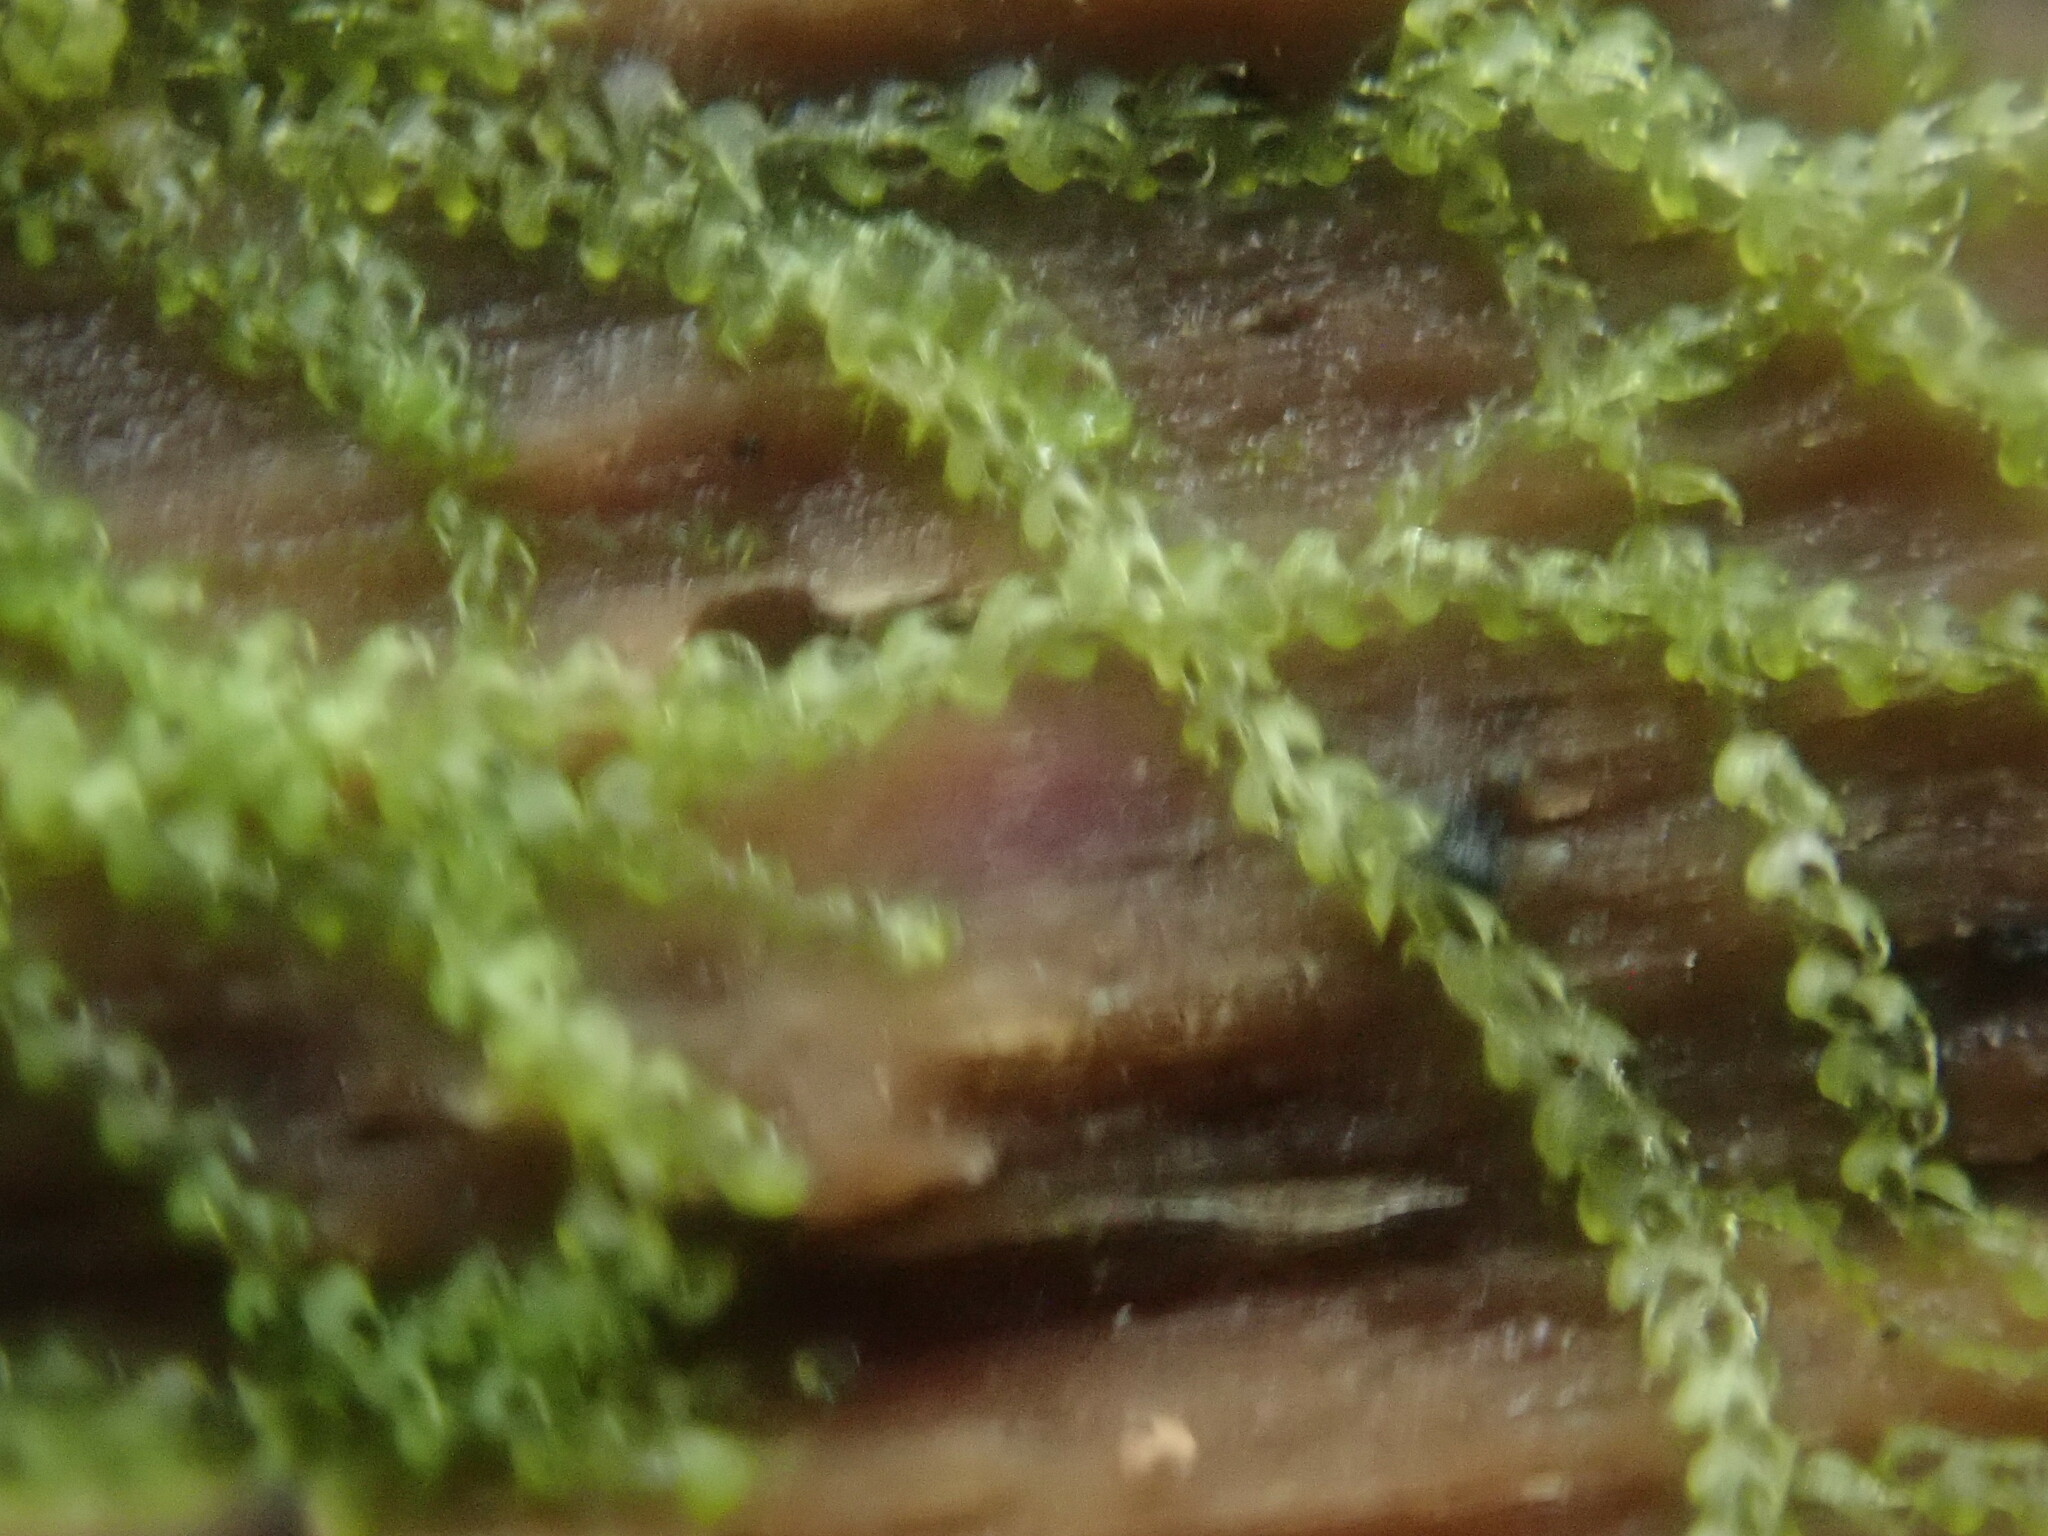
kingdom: Plantae
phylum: Marchantiophyta
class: Jungermanniopsida
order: Jungermanniales
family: Cephaloziaceae
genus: Nowellia
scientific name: Nowellia curvifolia
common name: Wood rustwort
